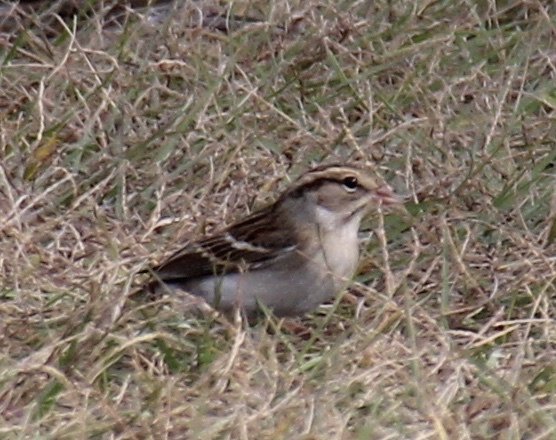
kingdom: Animalia
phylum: Chordata
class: Aves
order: Passeriformes
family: Passerellidae
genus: Spizella
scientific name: Spizella passerina
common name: Chipping sparrow
